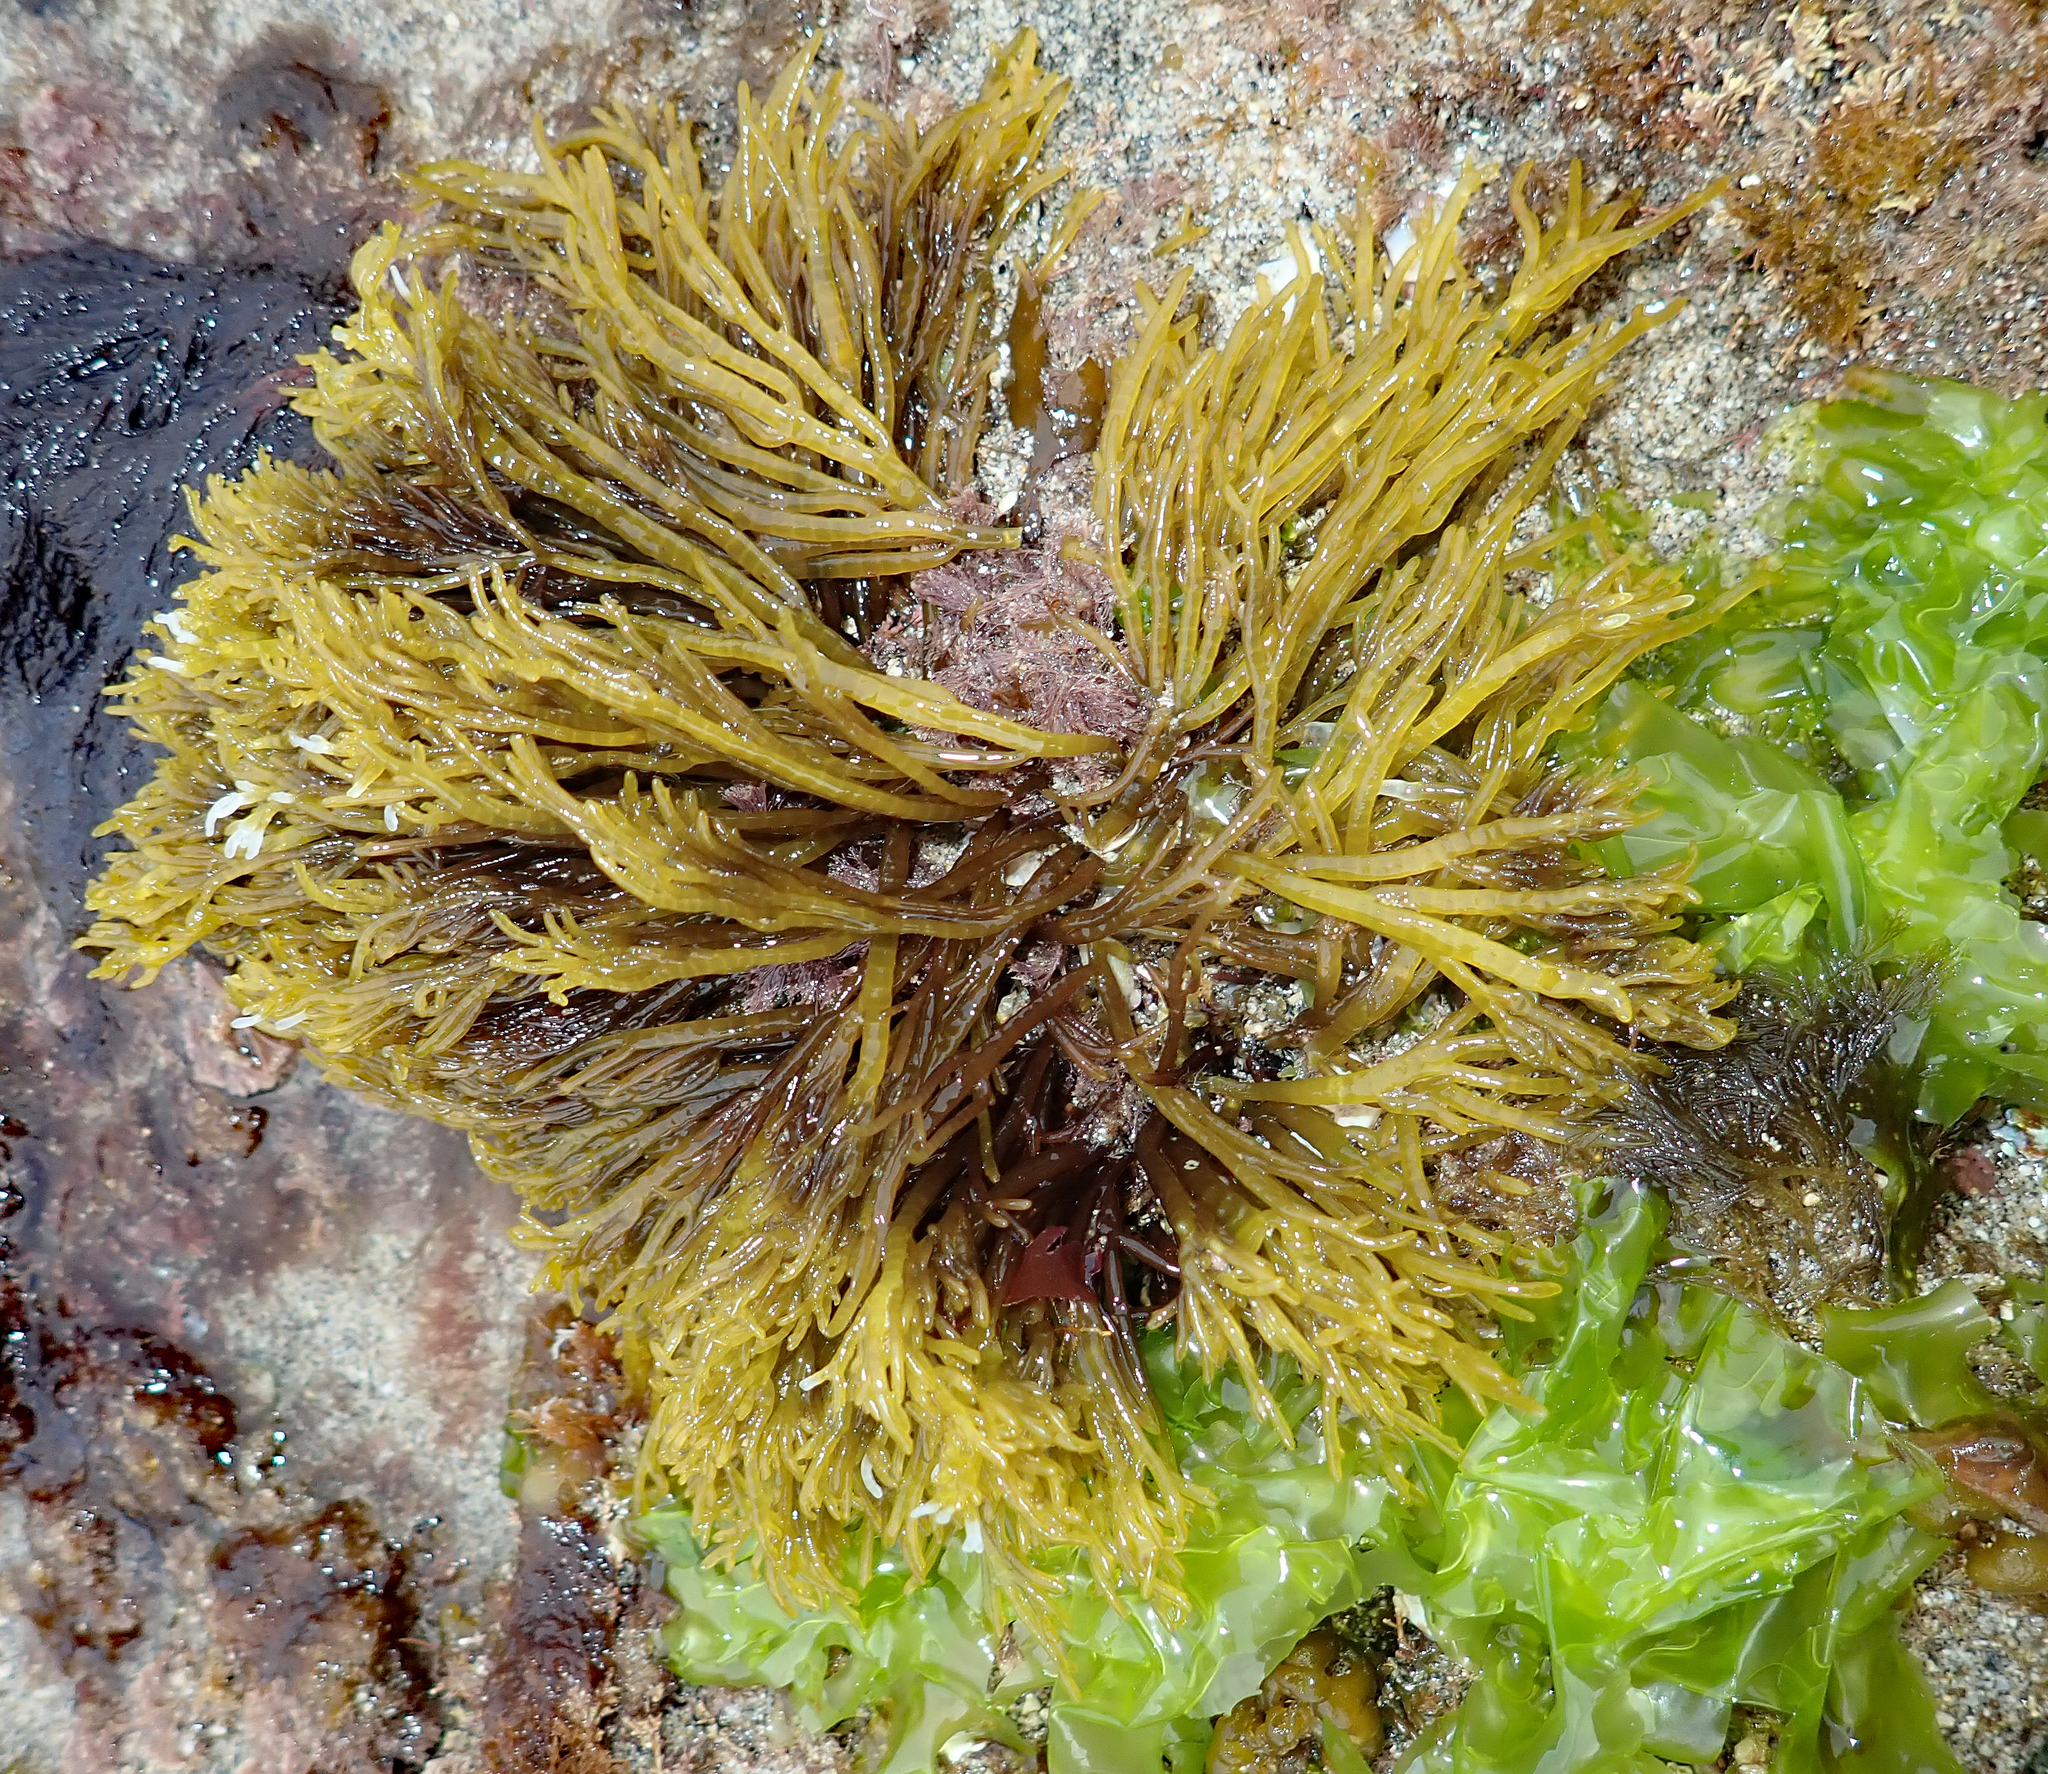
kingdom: Plantae
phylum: Rhodophyta
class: Florideophyceae
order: Rhodymeniales
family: Champiaceae
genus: Champia
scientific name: Champia novae-zelandiae
